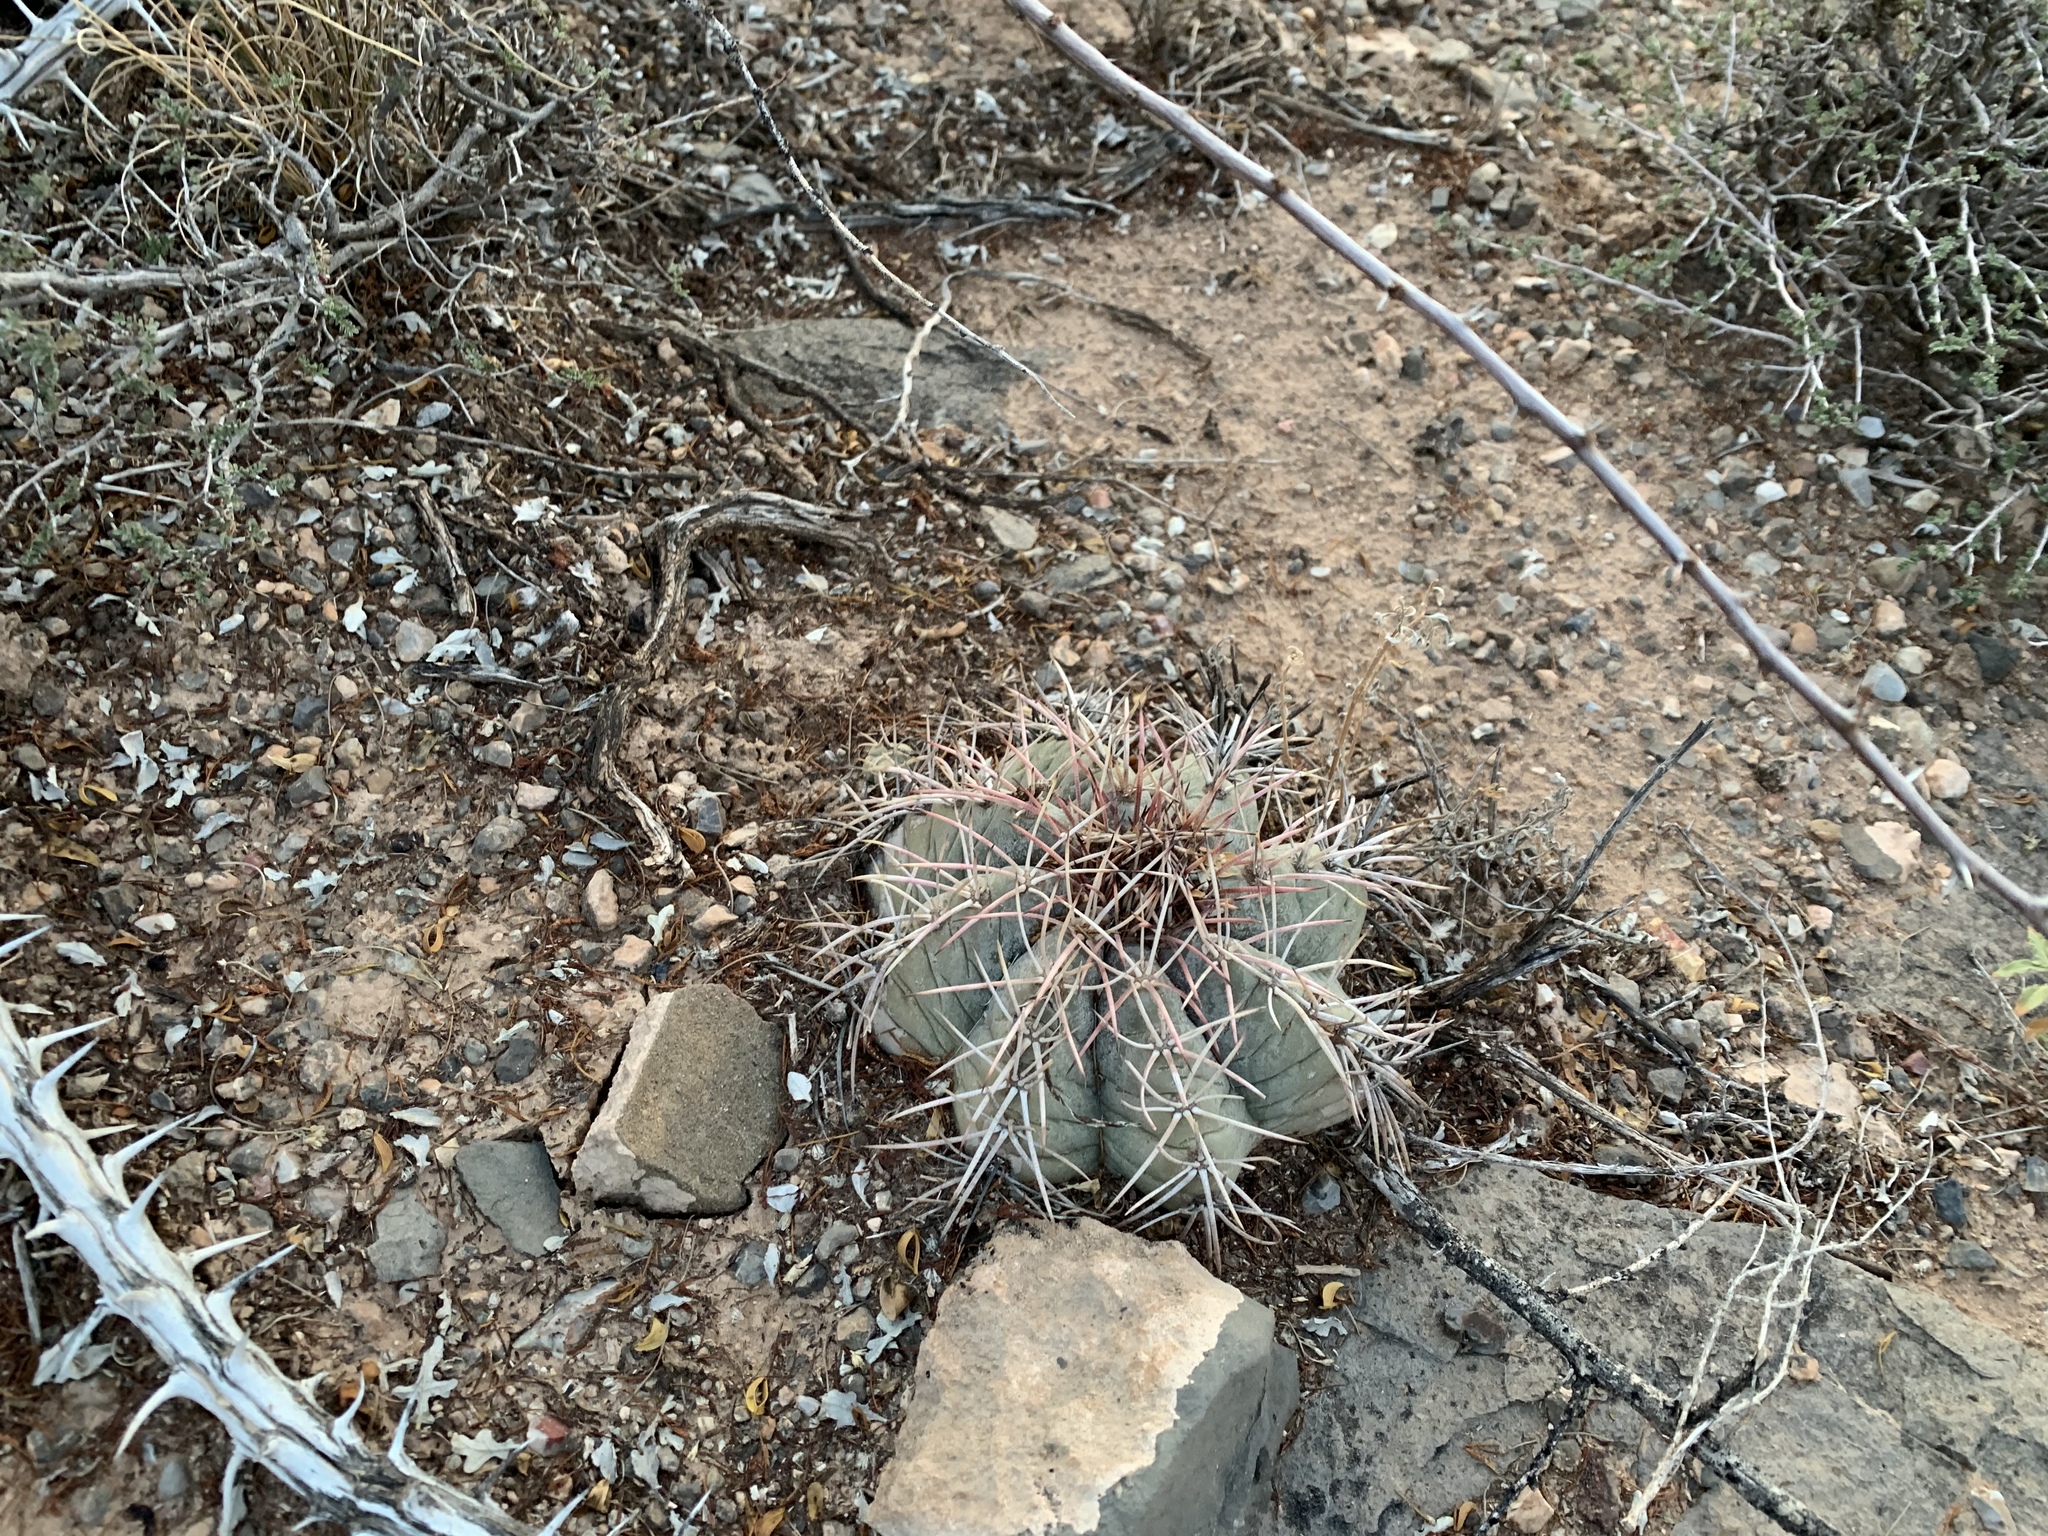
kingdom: Plantae
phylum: Tracheophyta
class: Magnoliopsida
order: Caryophyllales
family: Cactaceae
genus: Echinocactus
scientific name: Echinocactus horizonthalonius
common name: Devilshead
